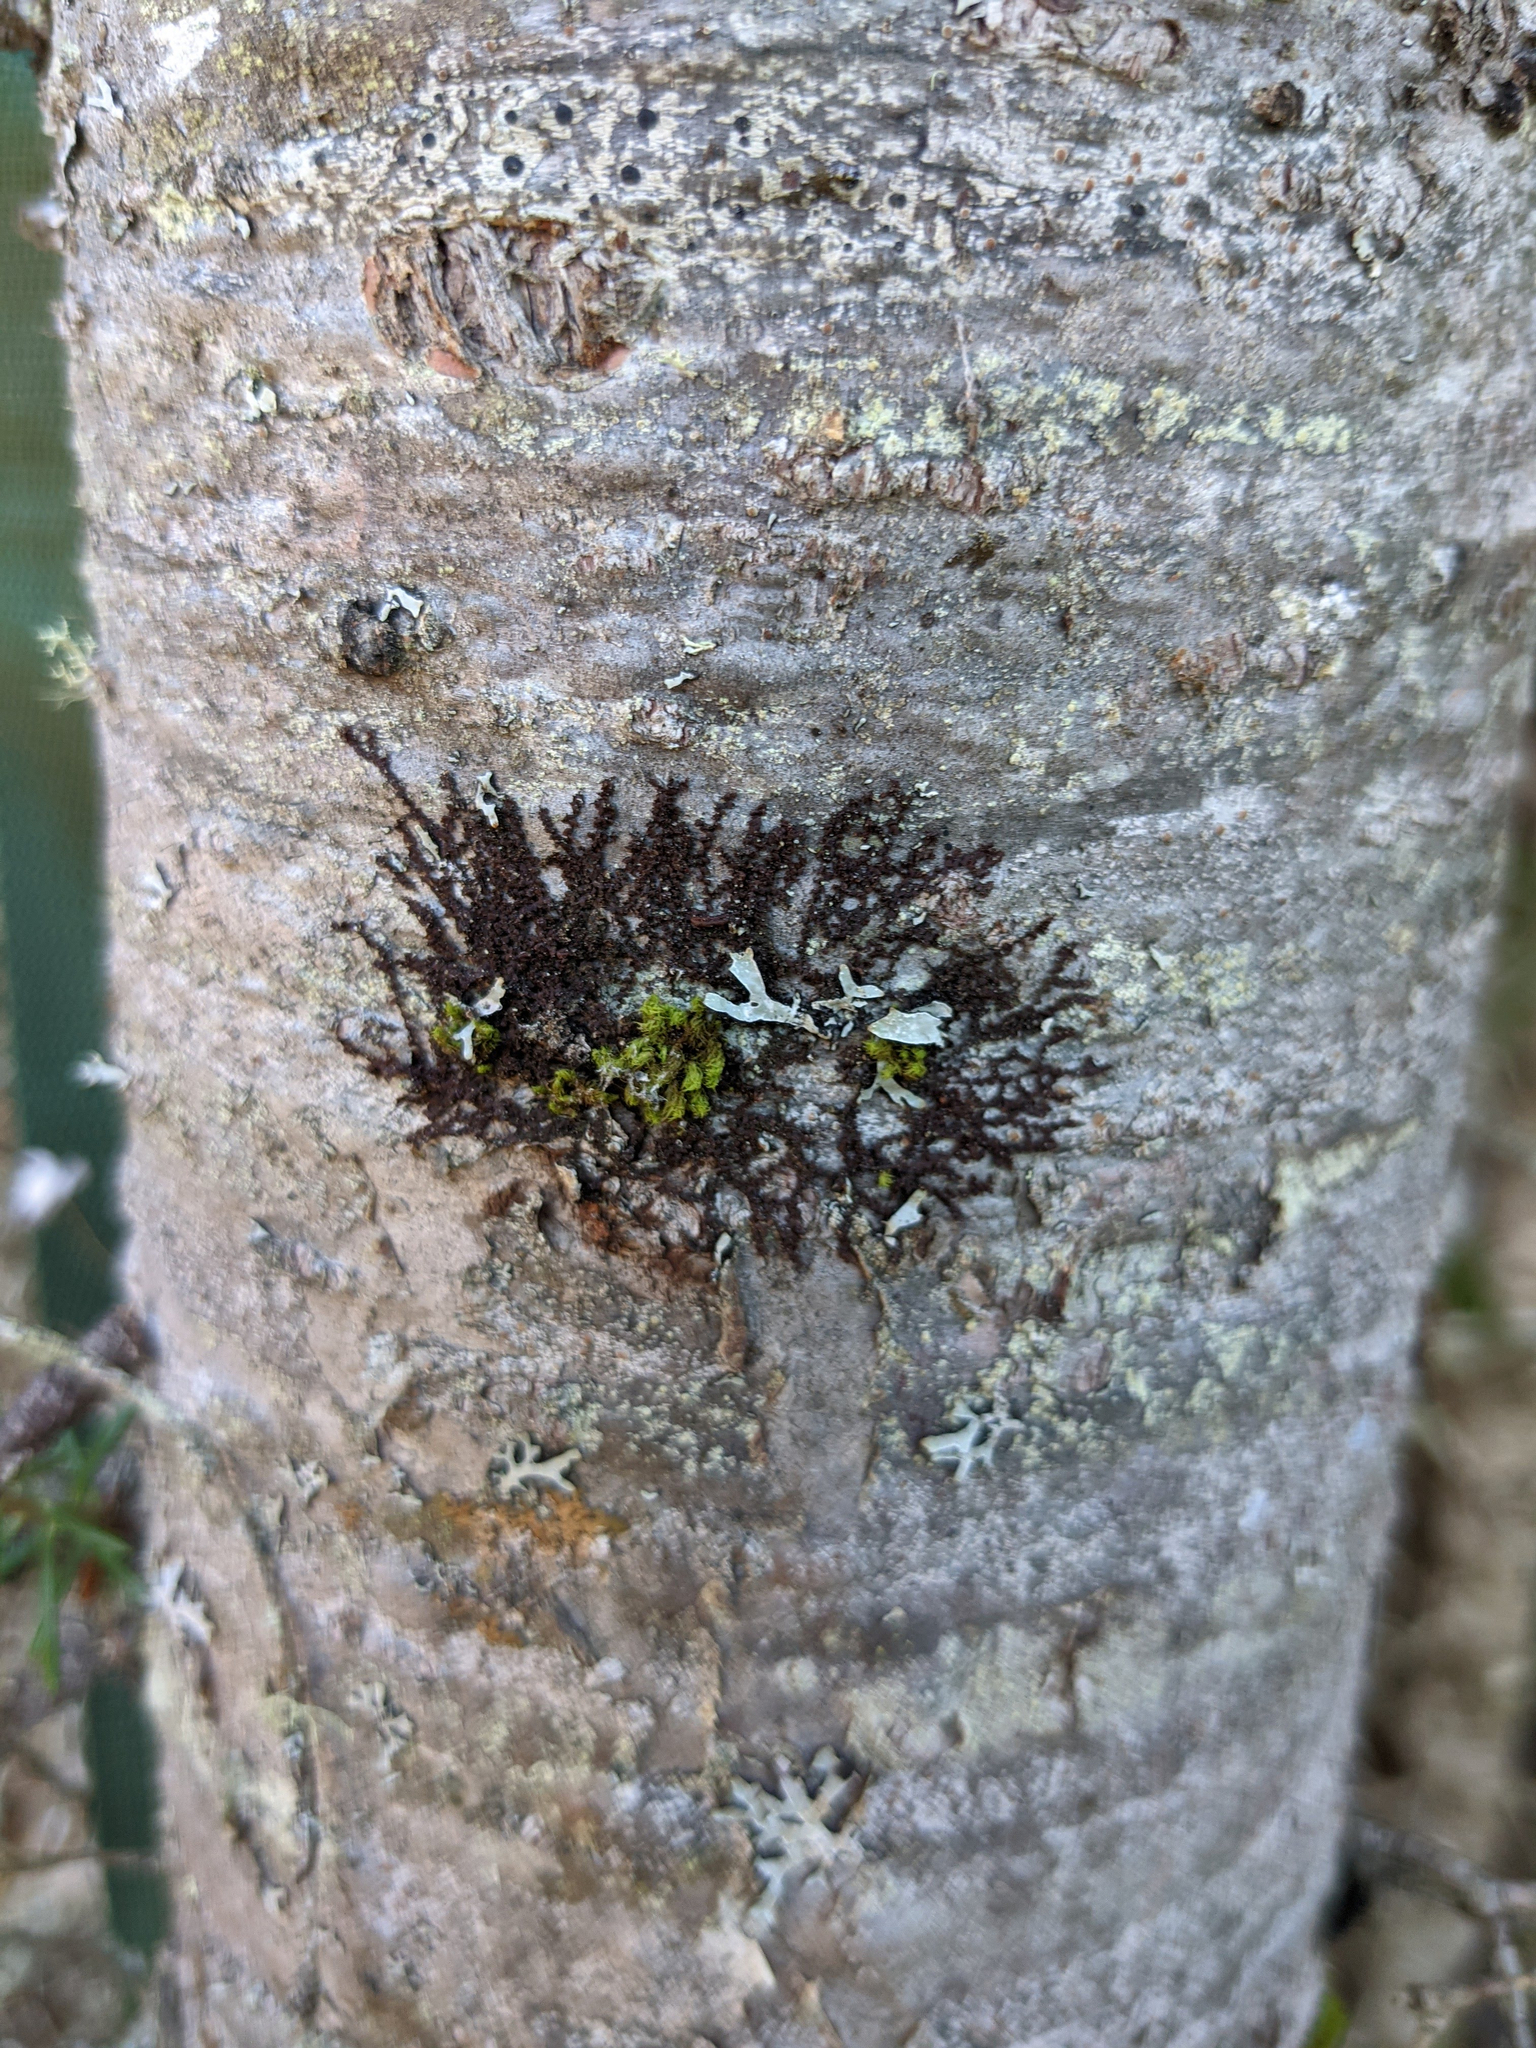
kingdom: Plantae
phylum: Bryophyta
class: Bryopsida
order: Orthotrichales
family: Orthotrichaceae
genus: Ulota
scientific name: Ulota crispa
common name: Crisped pincushion moss
